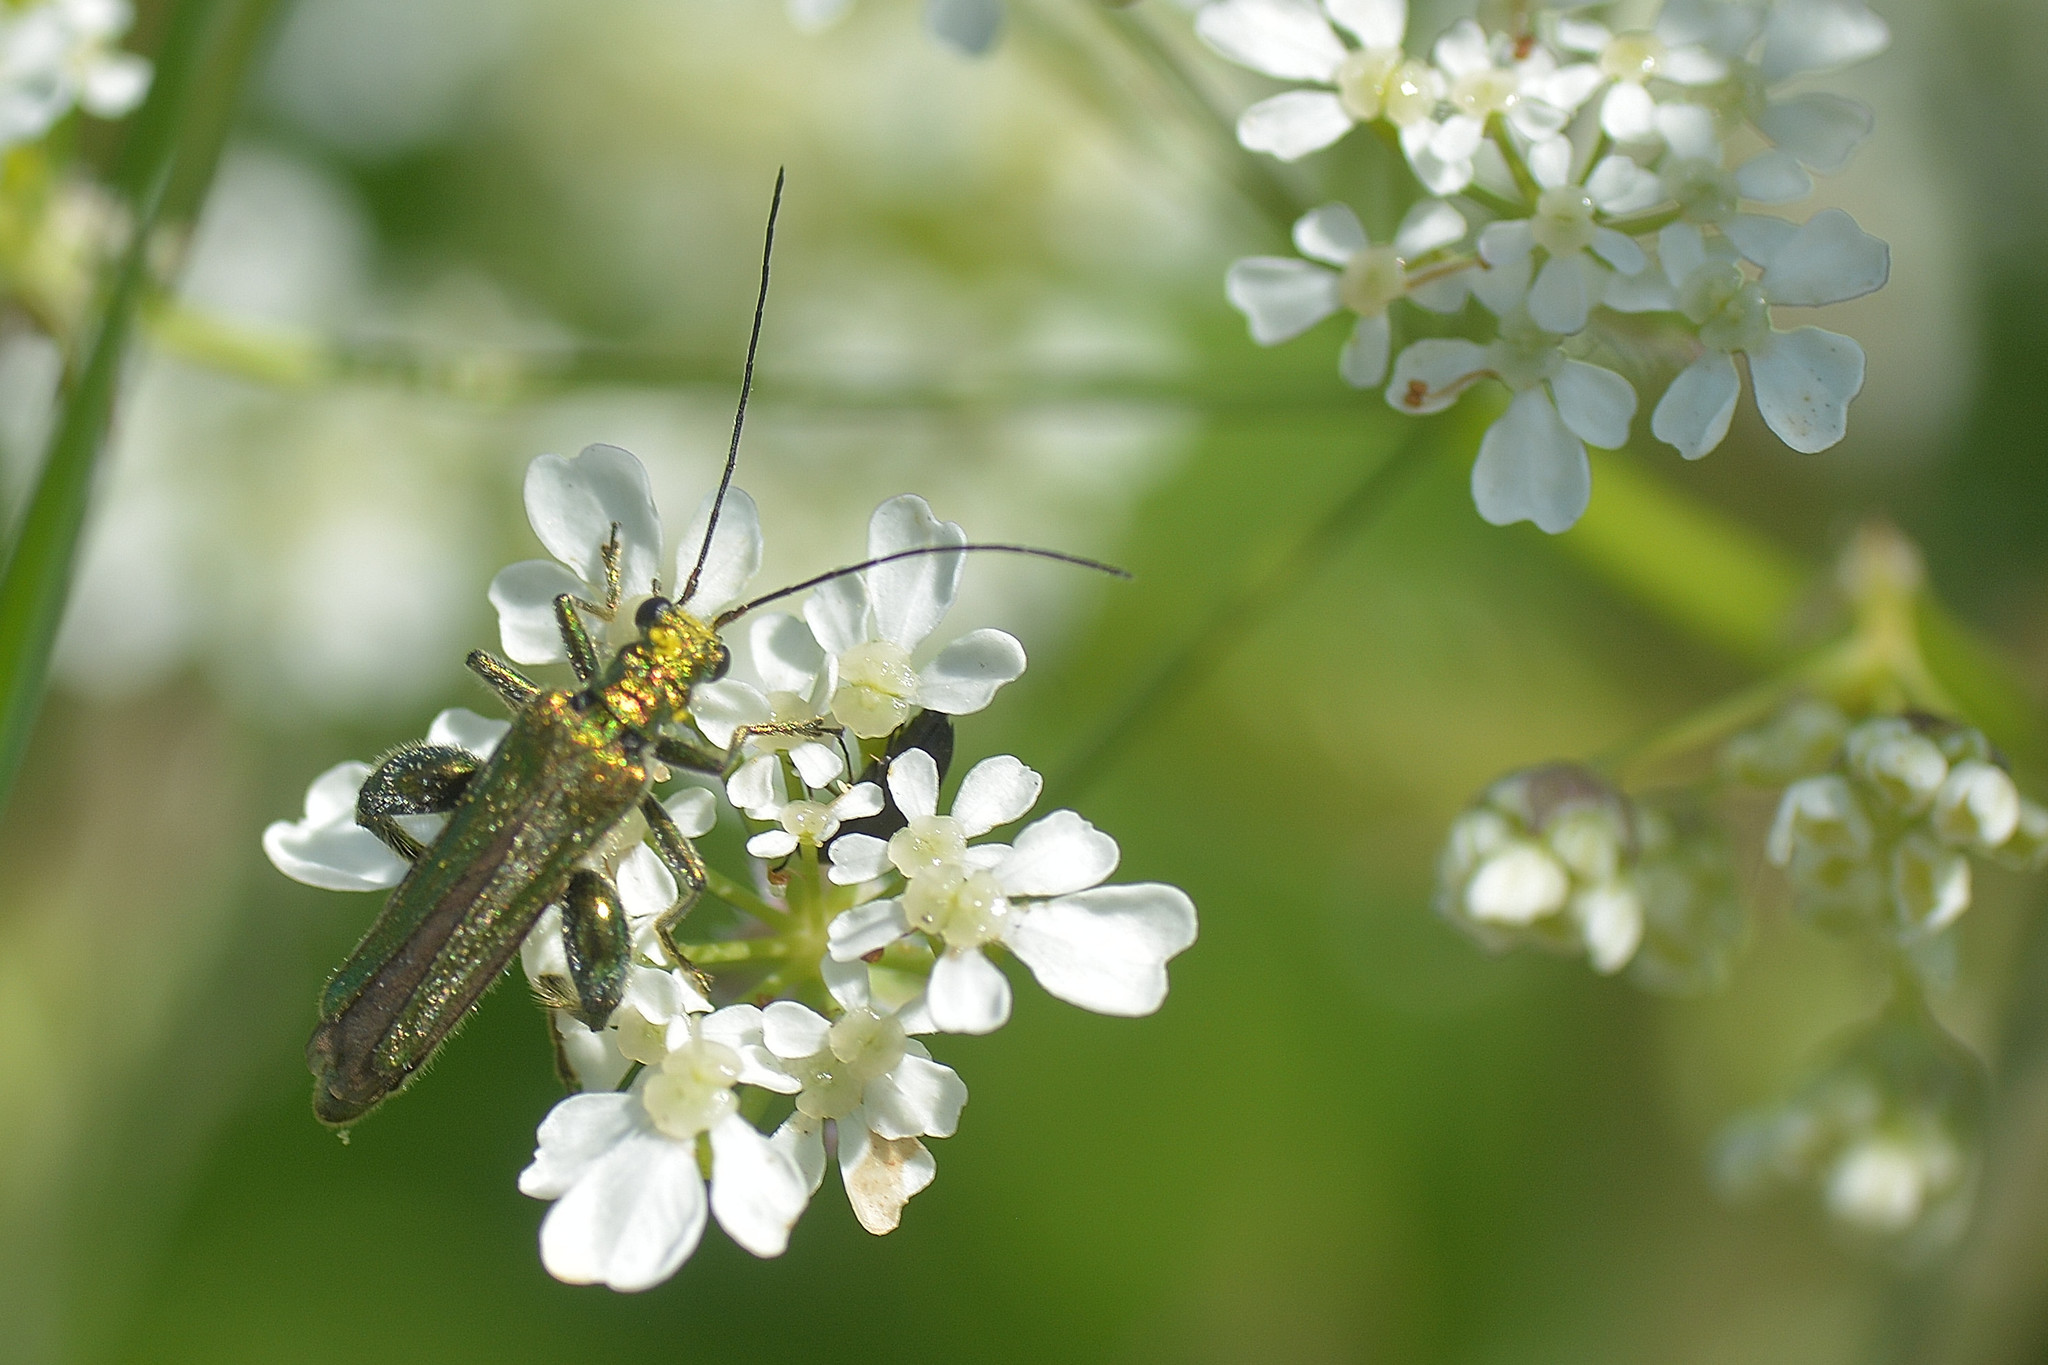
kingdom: Animalia
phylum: Arthropoda
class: Insecta
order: Coleoptera
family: Oedemeridae
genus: Oedemera
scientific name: Oedemera nobilis
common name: Swollen-thighed beetle
